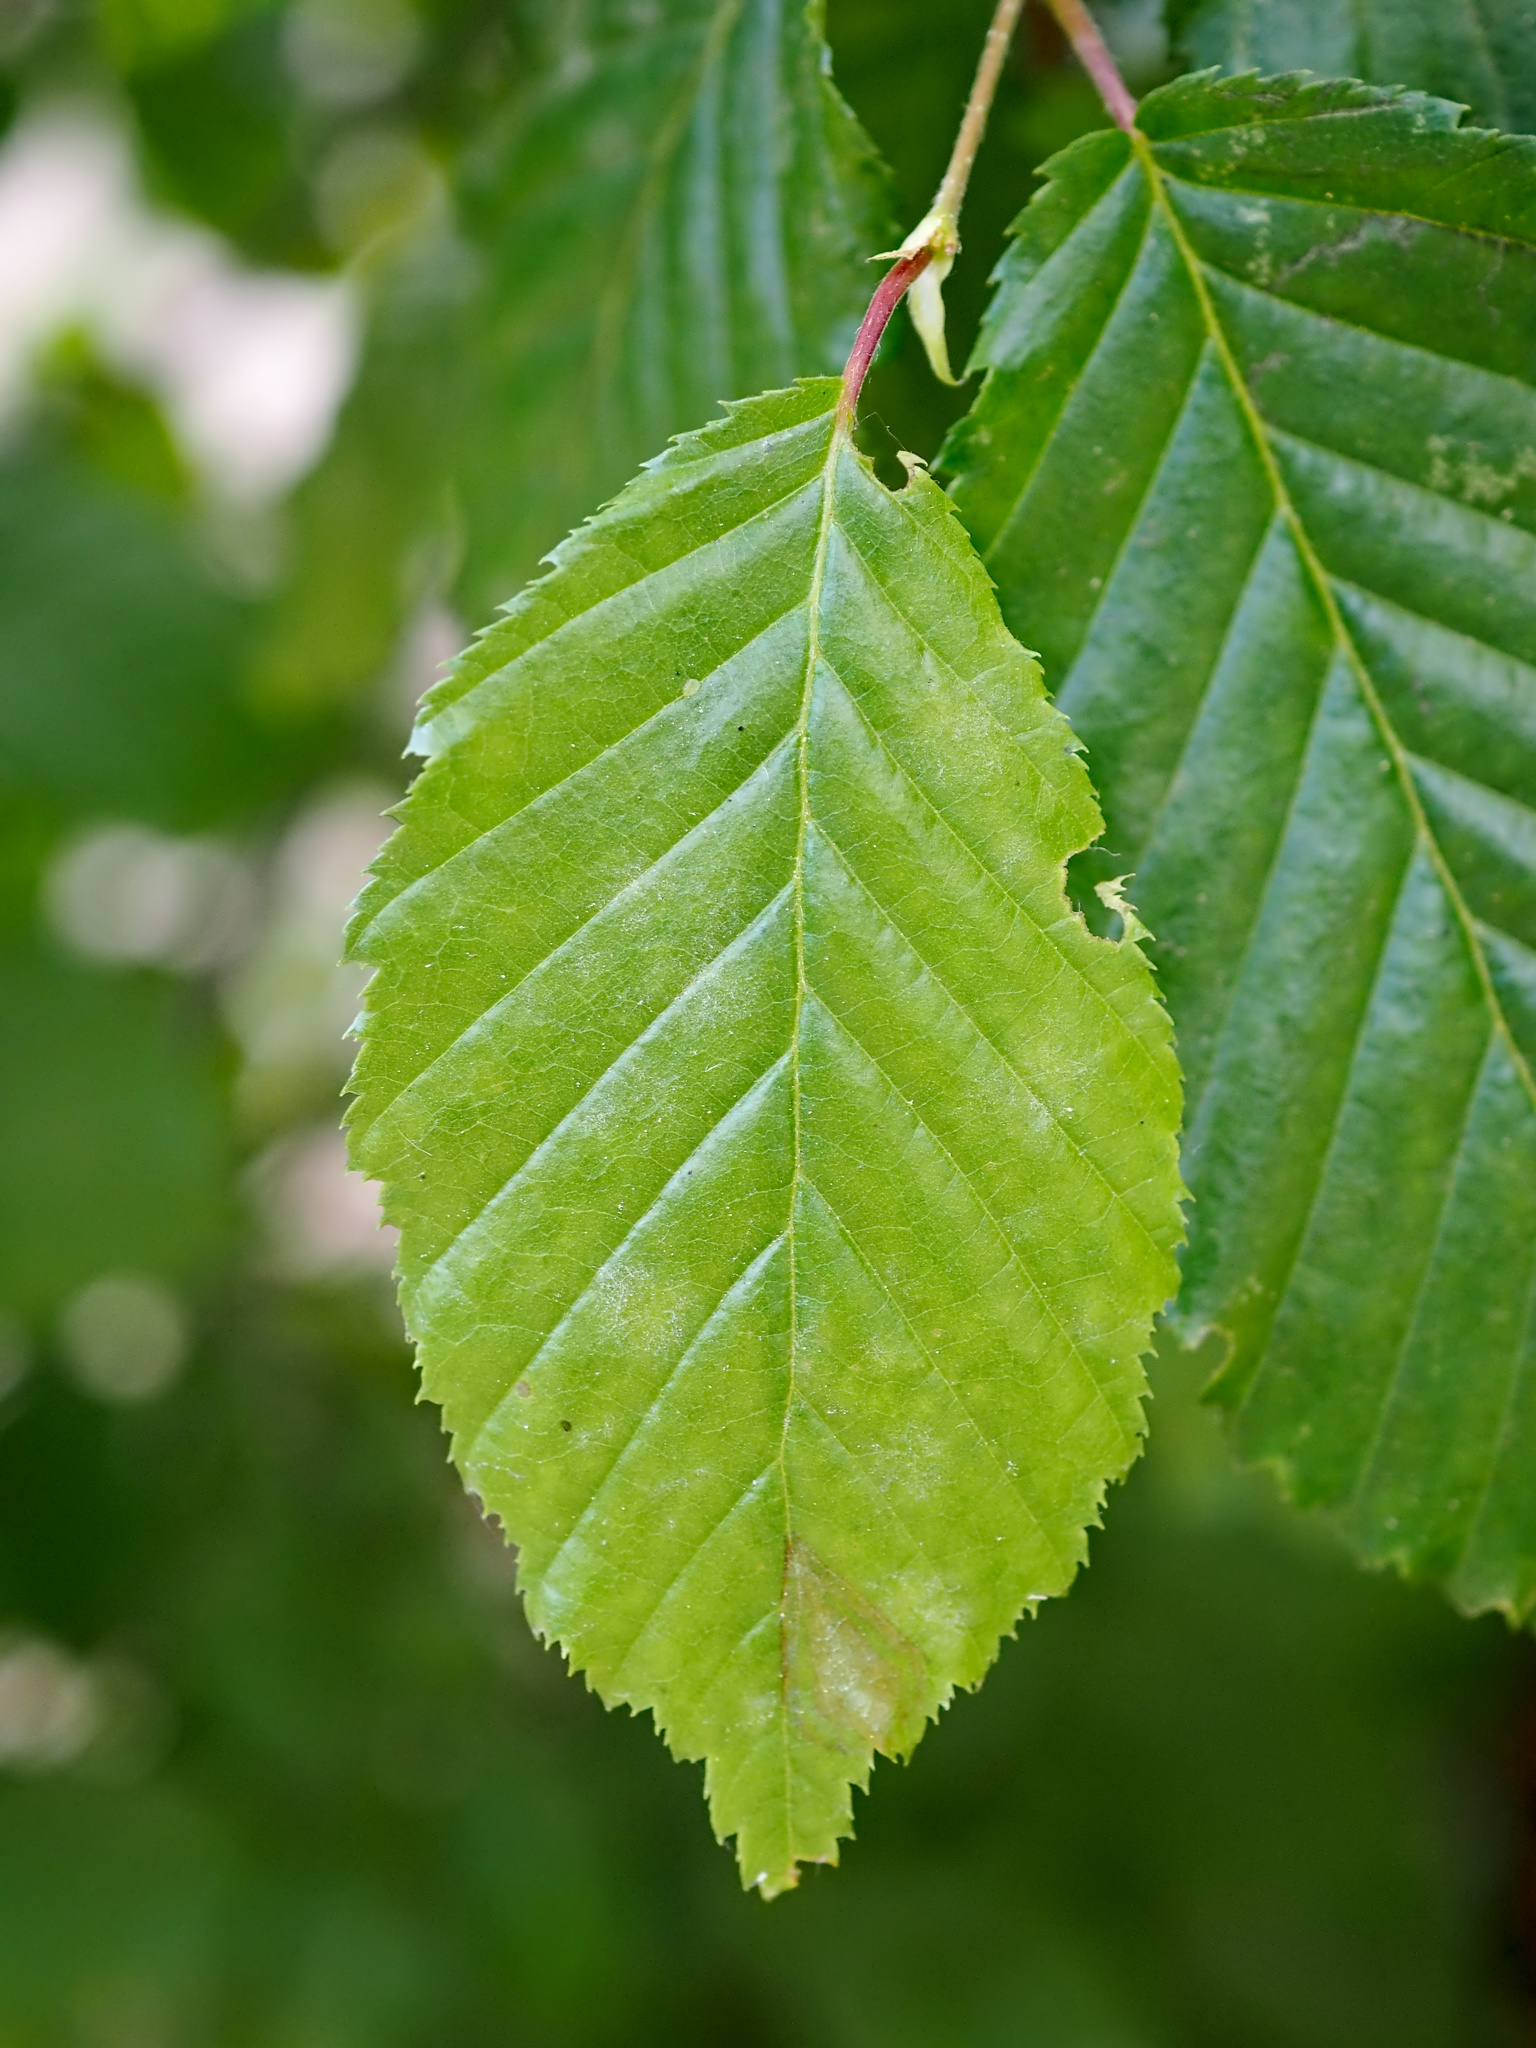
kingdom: Plantae
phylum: Tracheophyta
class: Magnoliopsida
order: Fagales
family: Betulaceae
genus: Carpinus
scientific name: Carpinus betulus
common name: Hornbeam
